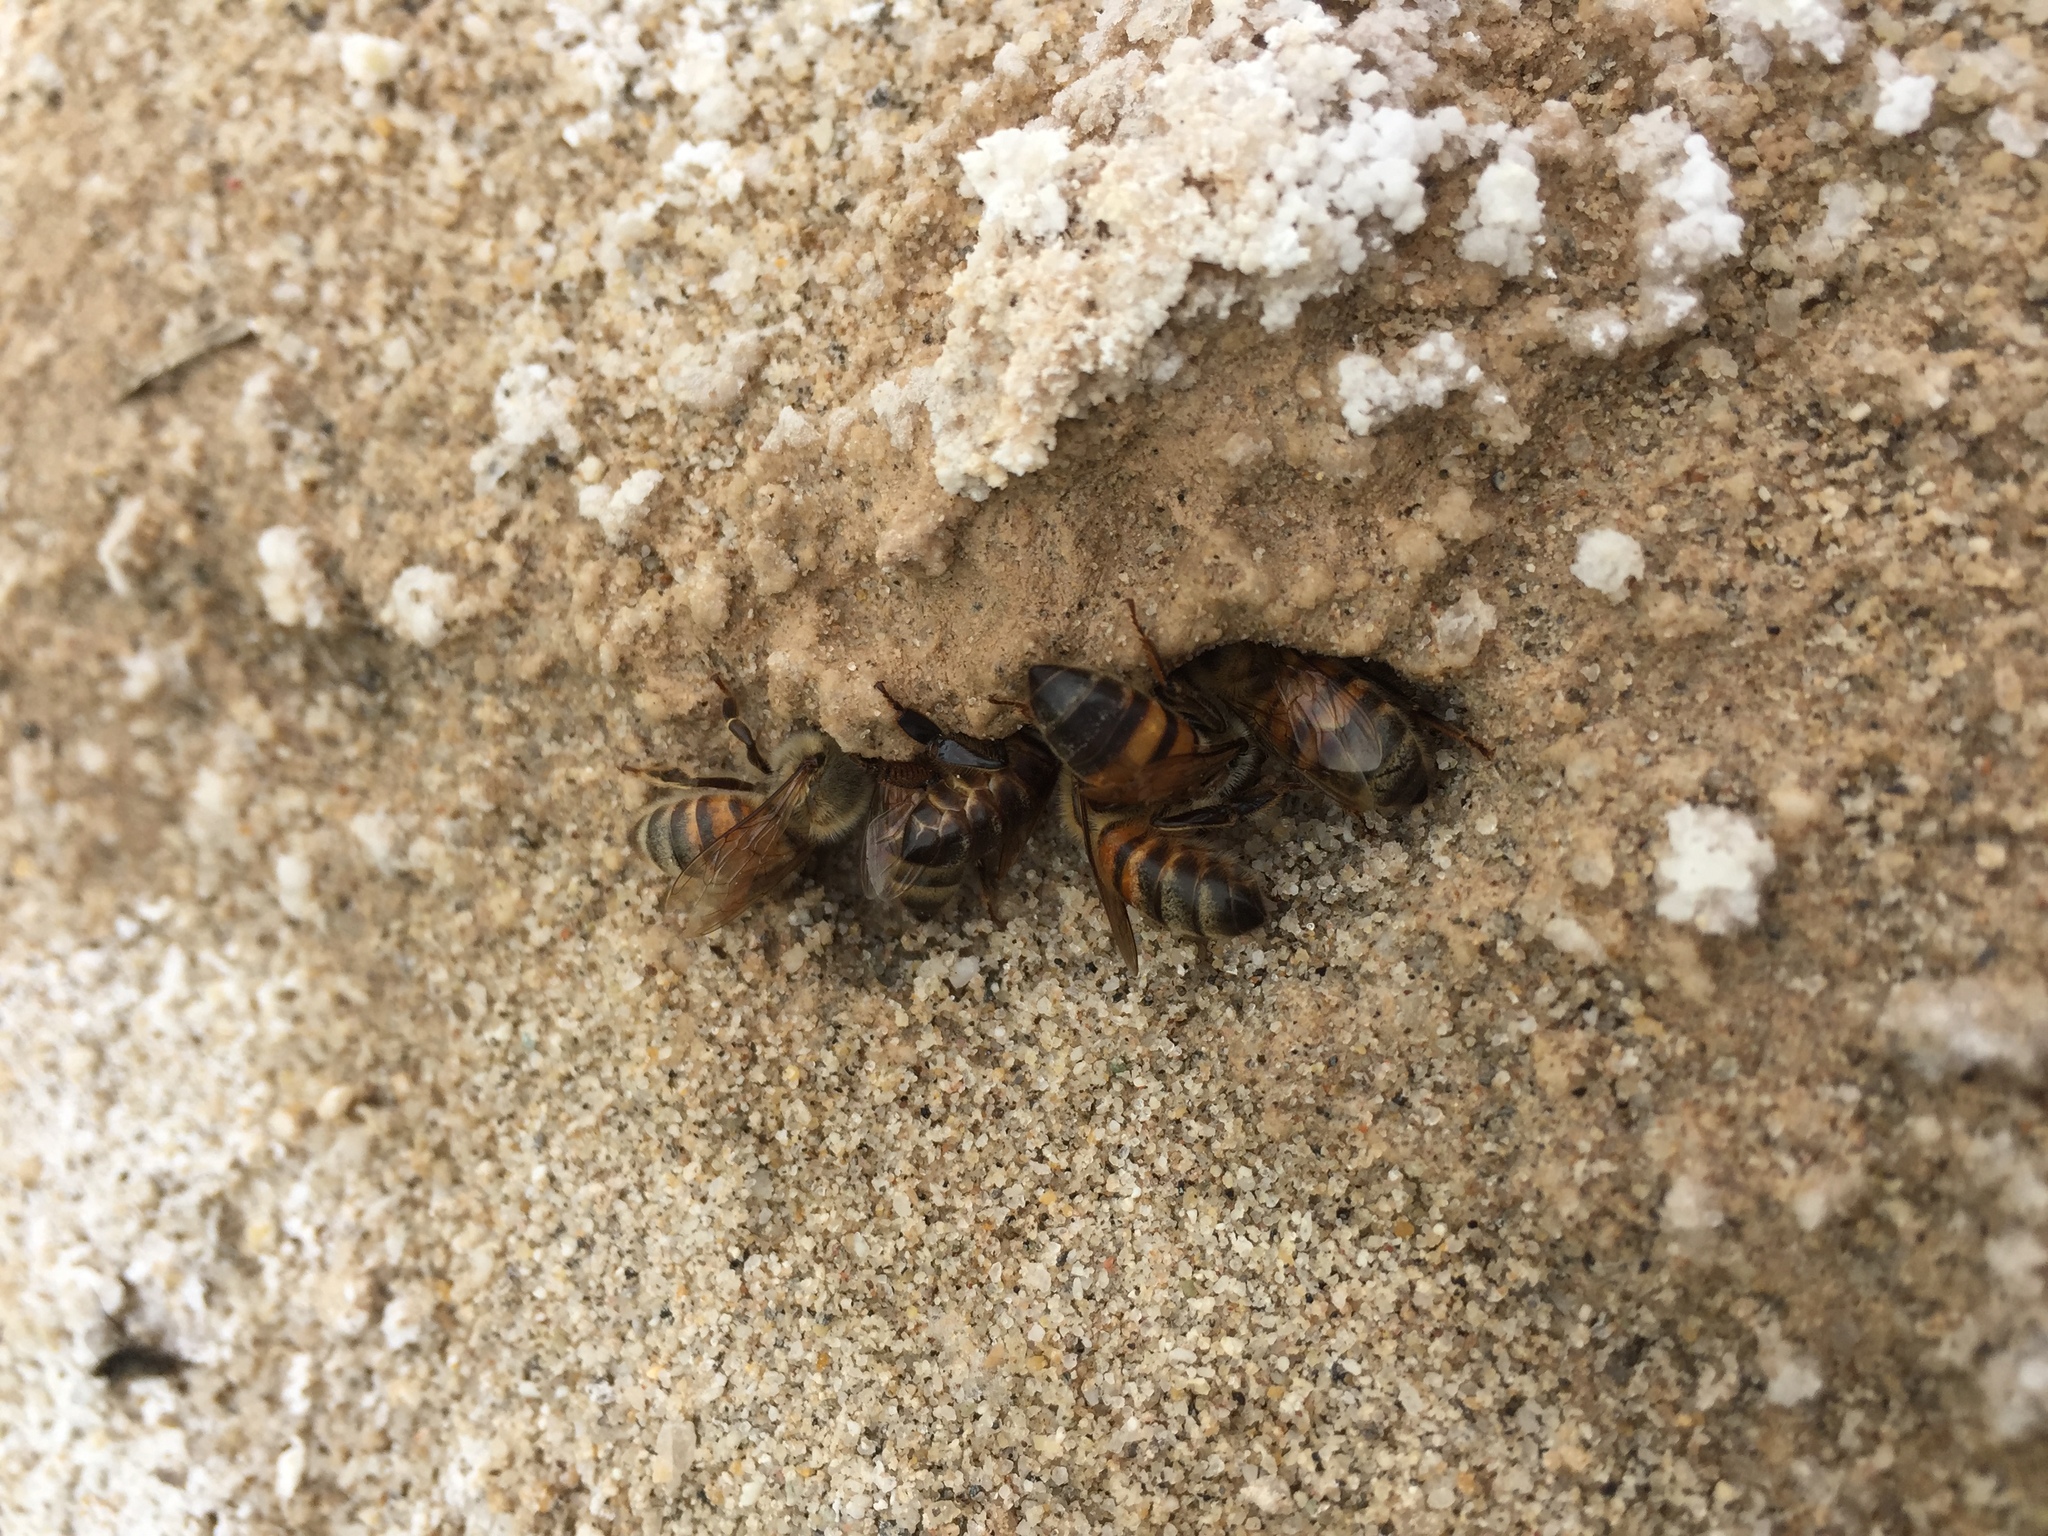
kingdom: Animalia
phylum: Arthropoda
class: Insecta
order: Hymenoptera
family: Apidae
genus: Apis
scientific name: Apis mellifera
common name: Honey bee
